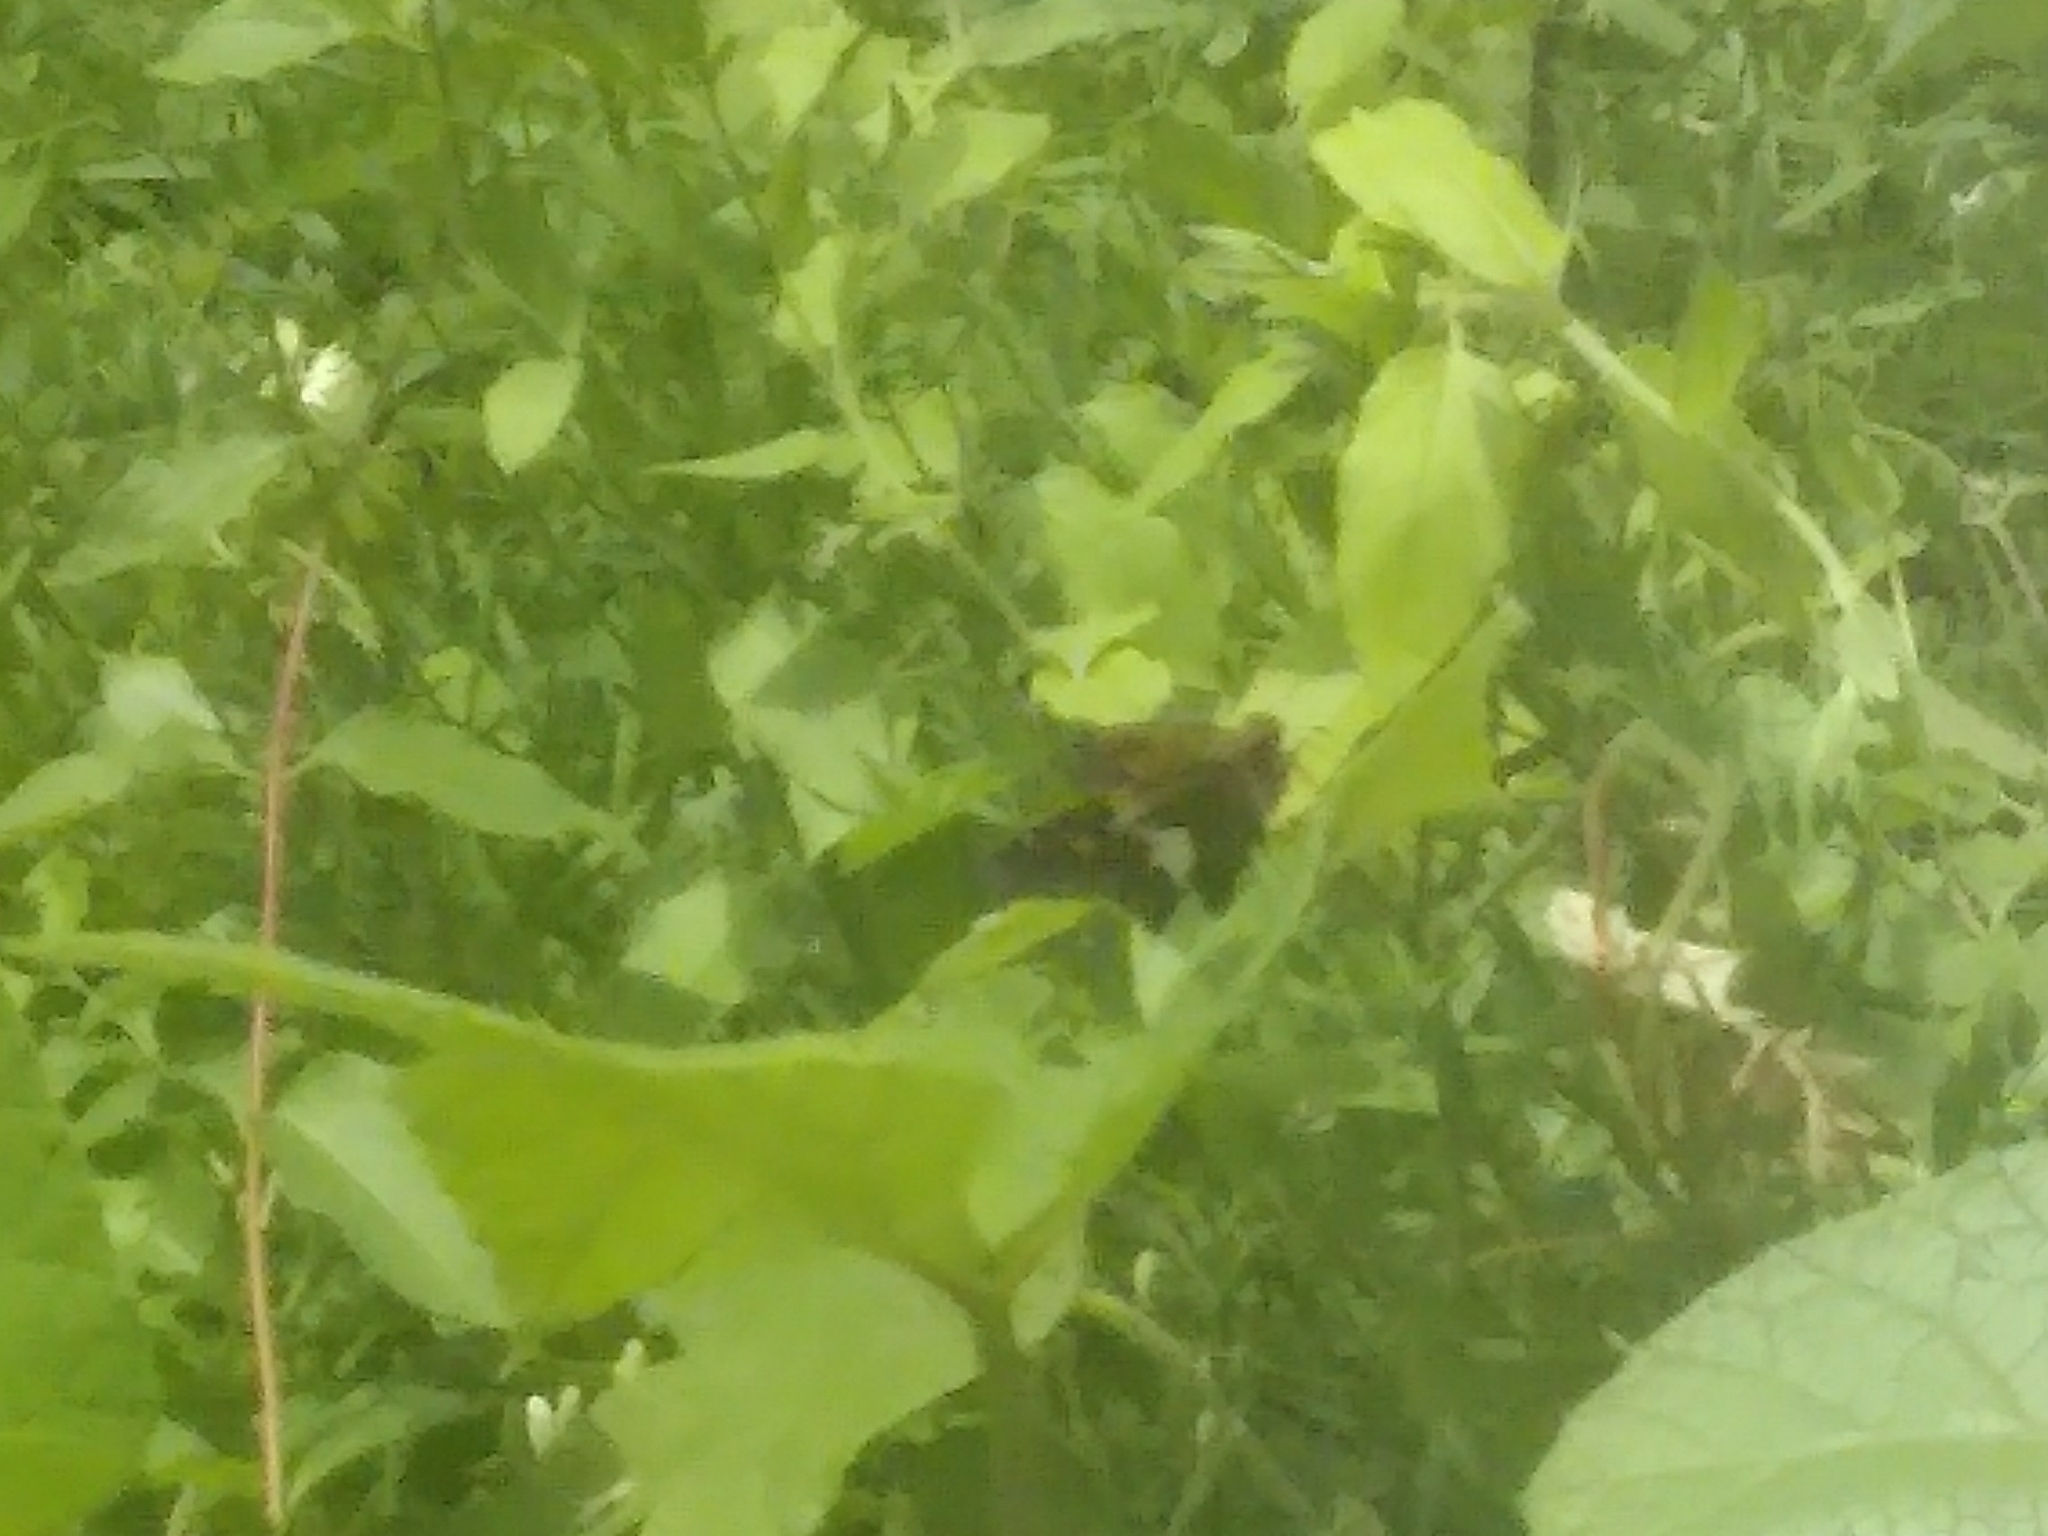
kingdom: Animalia
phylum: Arthropoda
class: Insecta
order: Lepidoptera
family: Hesperiidae
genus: Epargyreus
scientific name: Epargyreus clarus
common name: Silver-spotted skipper
